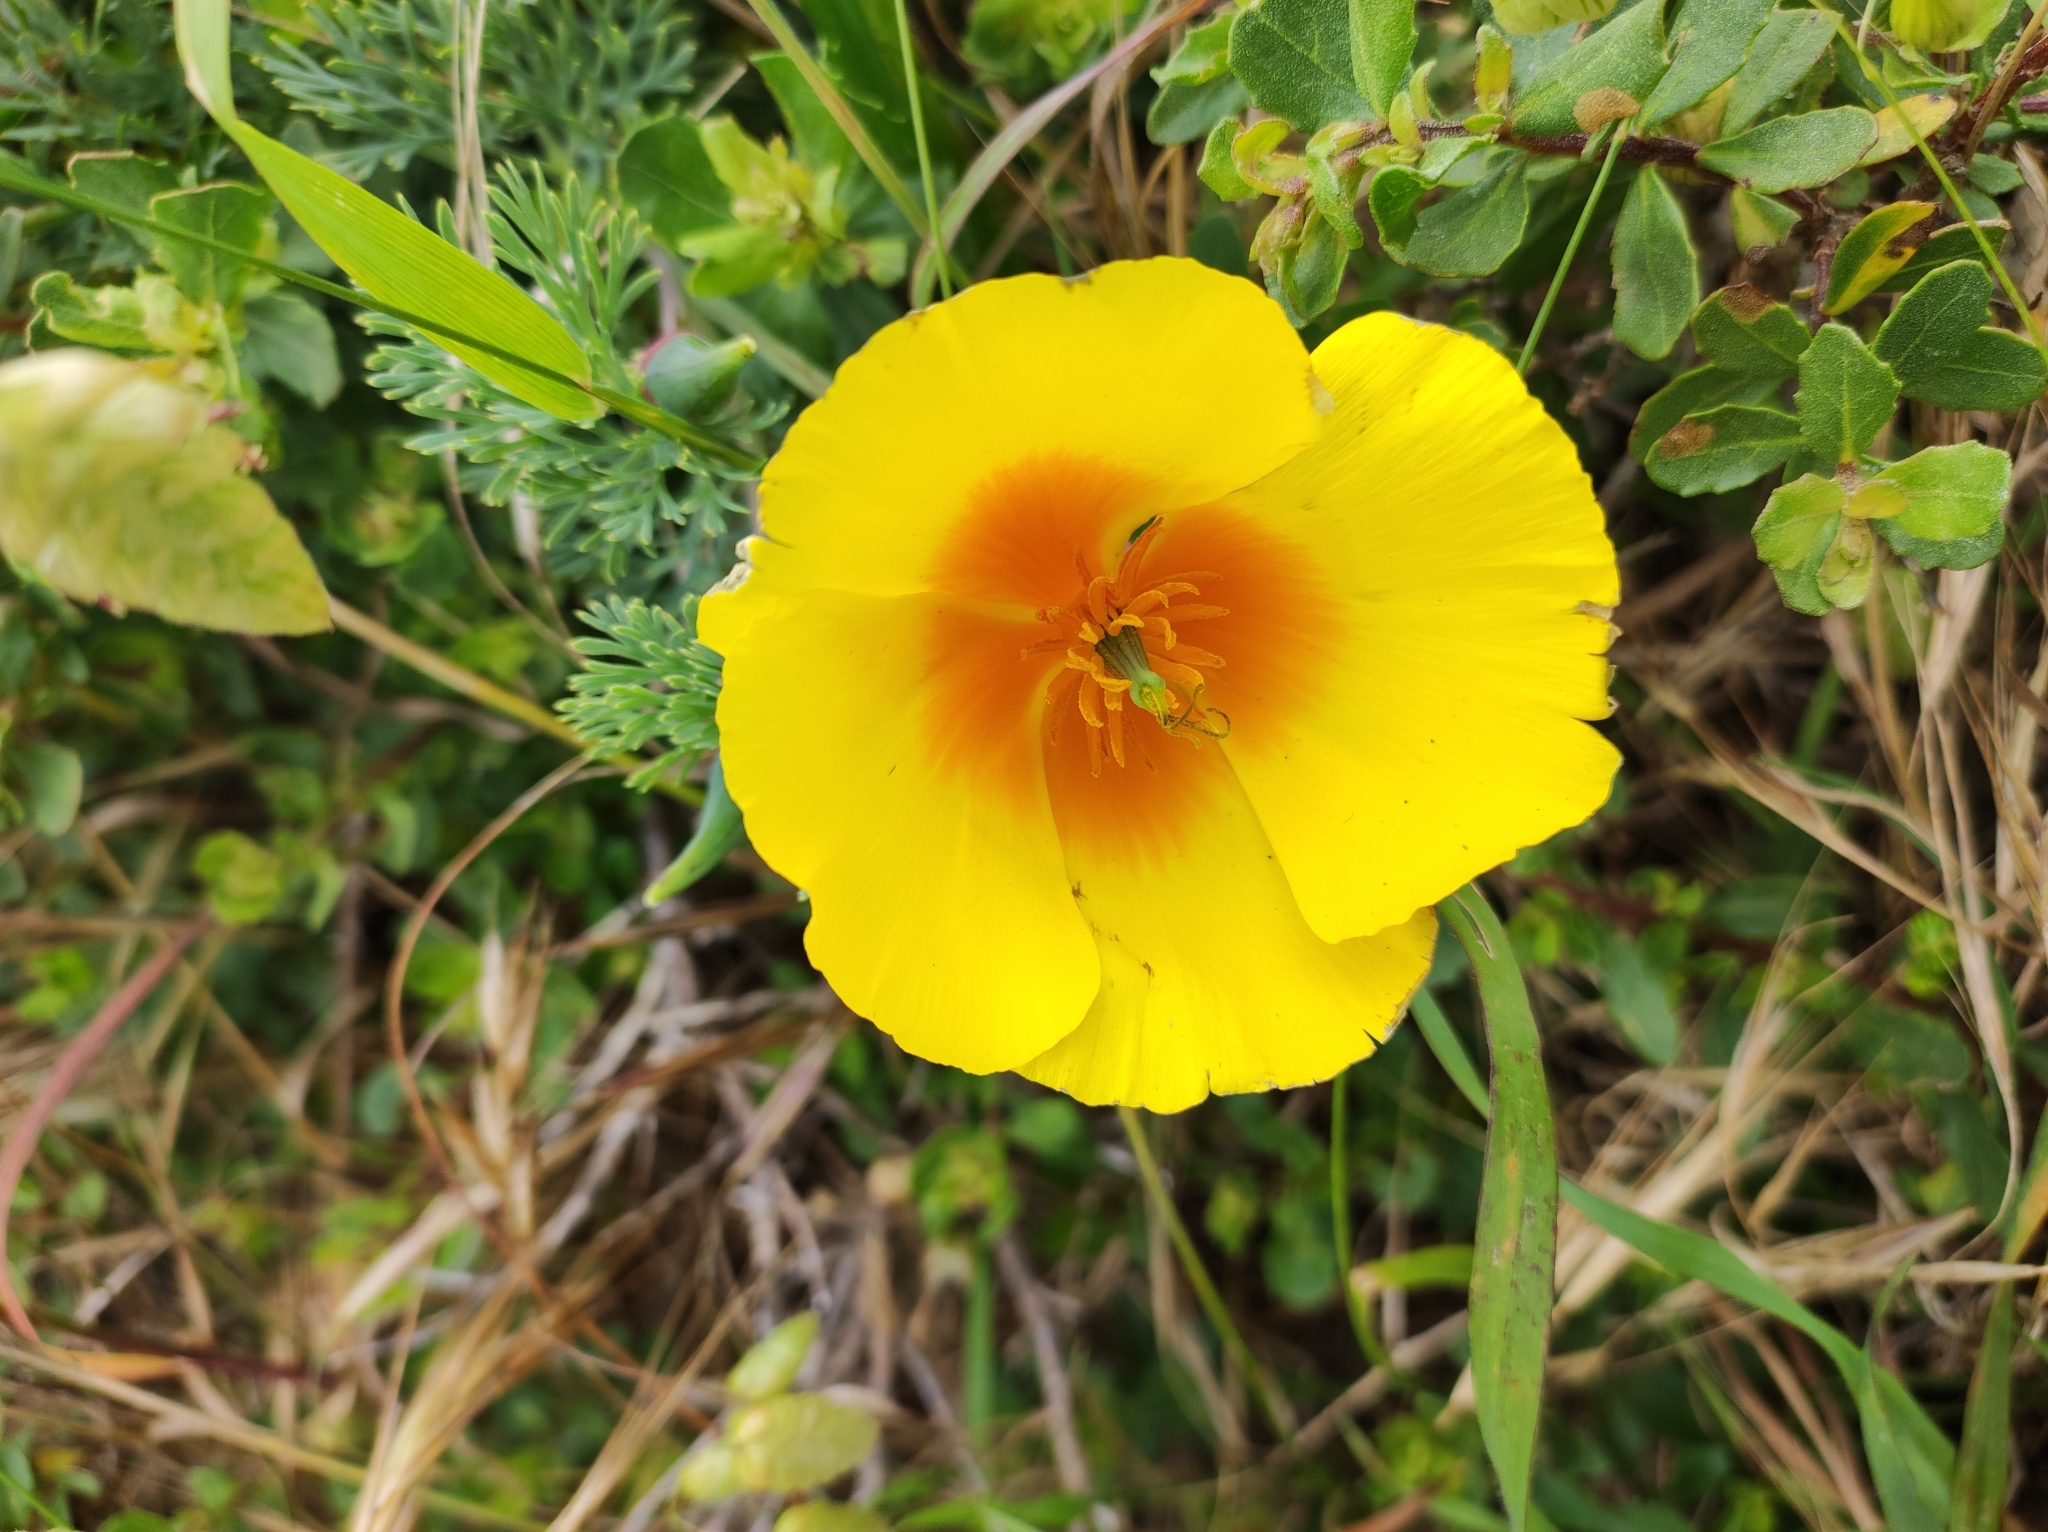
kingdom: Plantae
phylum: Tracheophyta
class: Magnoliopsida
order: Ranunculales
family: Papaveraceae
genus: Eschscholzia
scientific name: Eschscholzia californica
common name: California poppy
